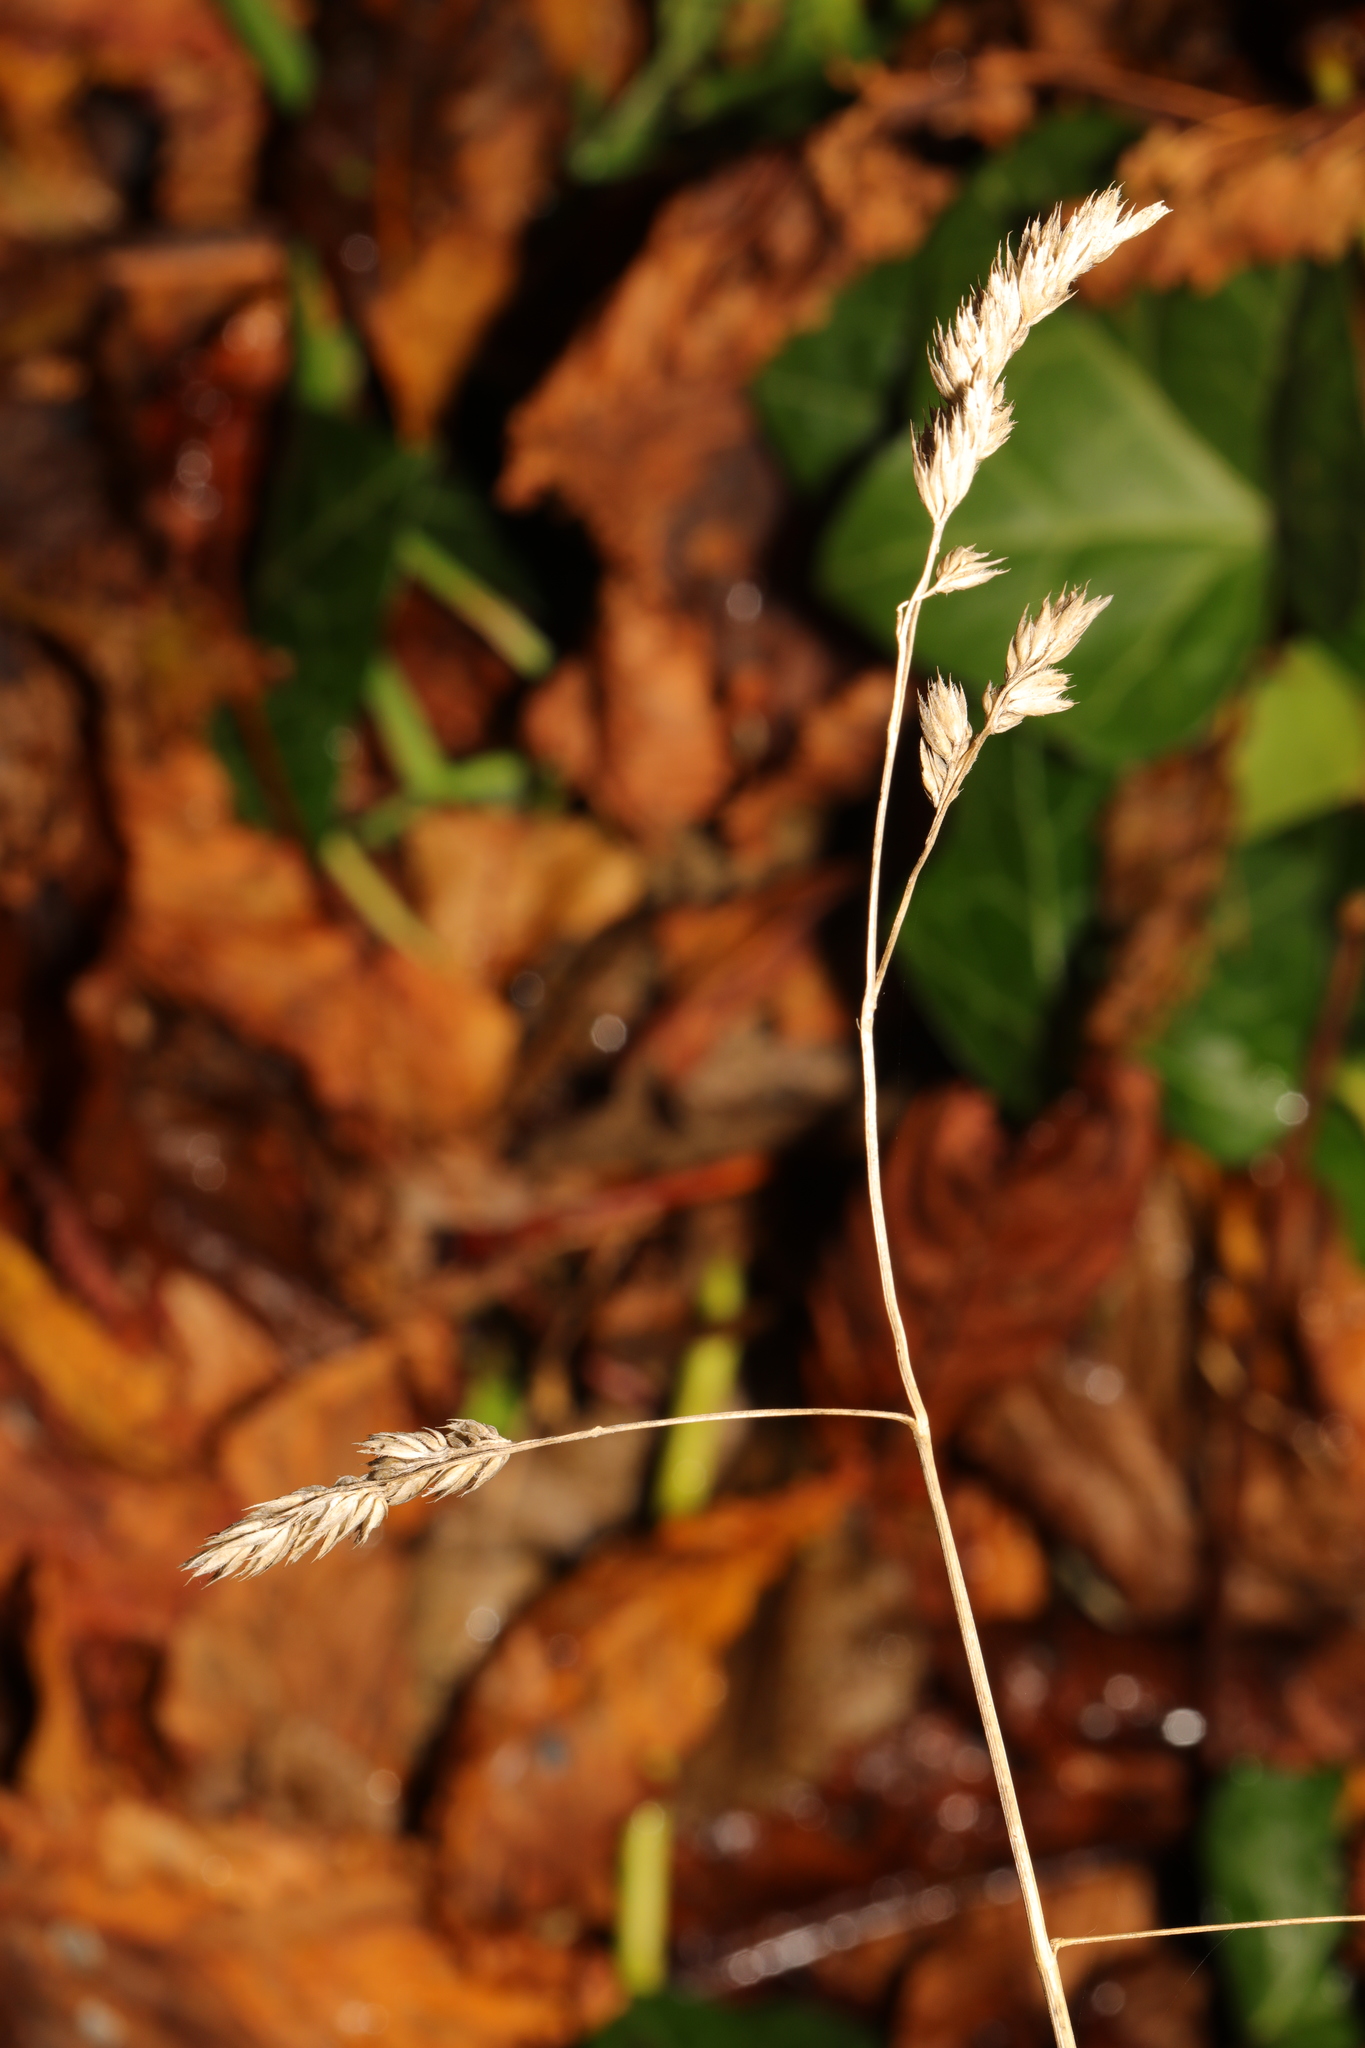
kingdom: Plantae
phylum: Tracheophyta
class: Liliopsida
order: Poales
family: Poaceae
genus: Dactylis
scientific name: Dactylis glomerata
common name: Orchardgrass
